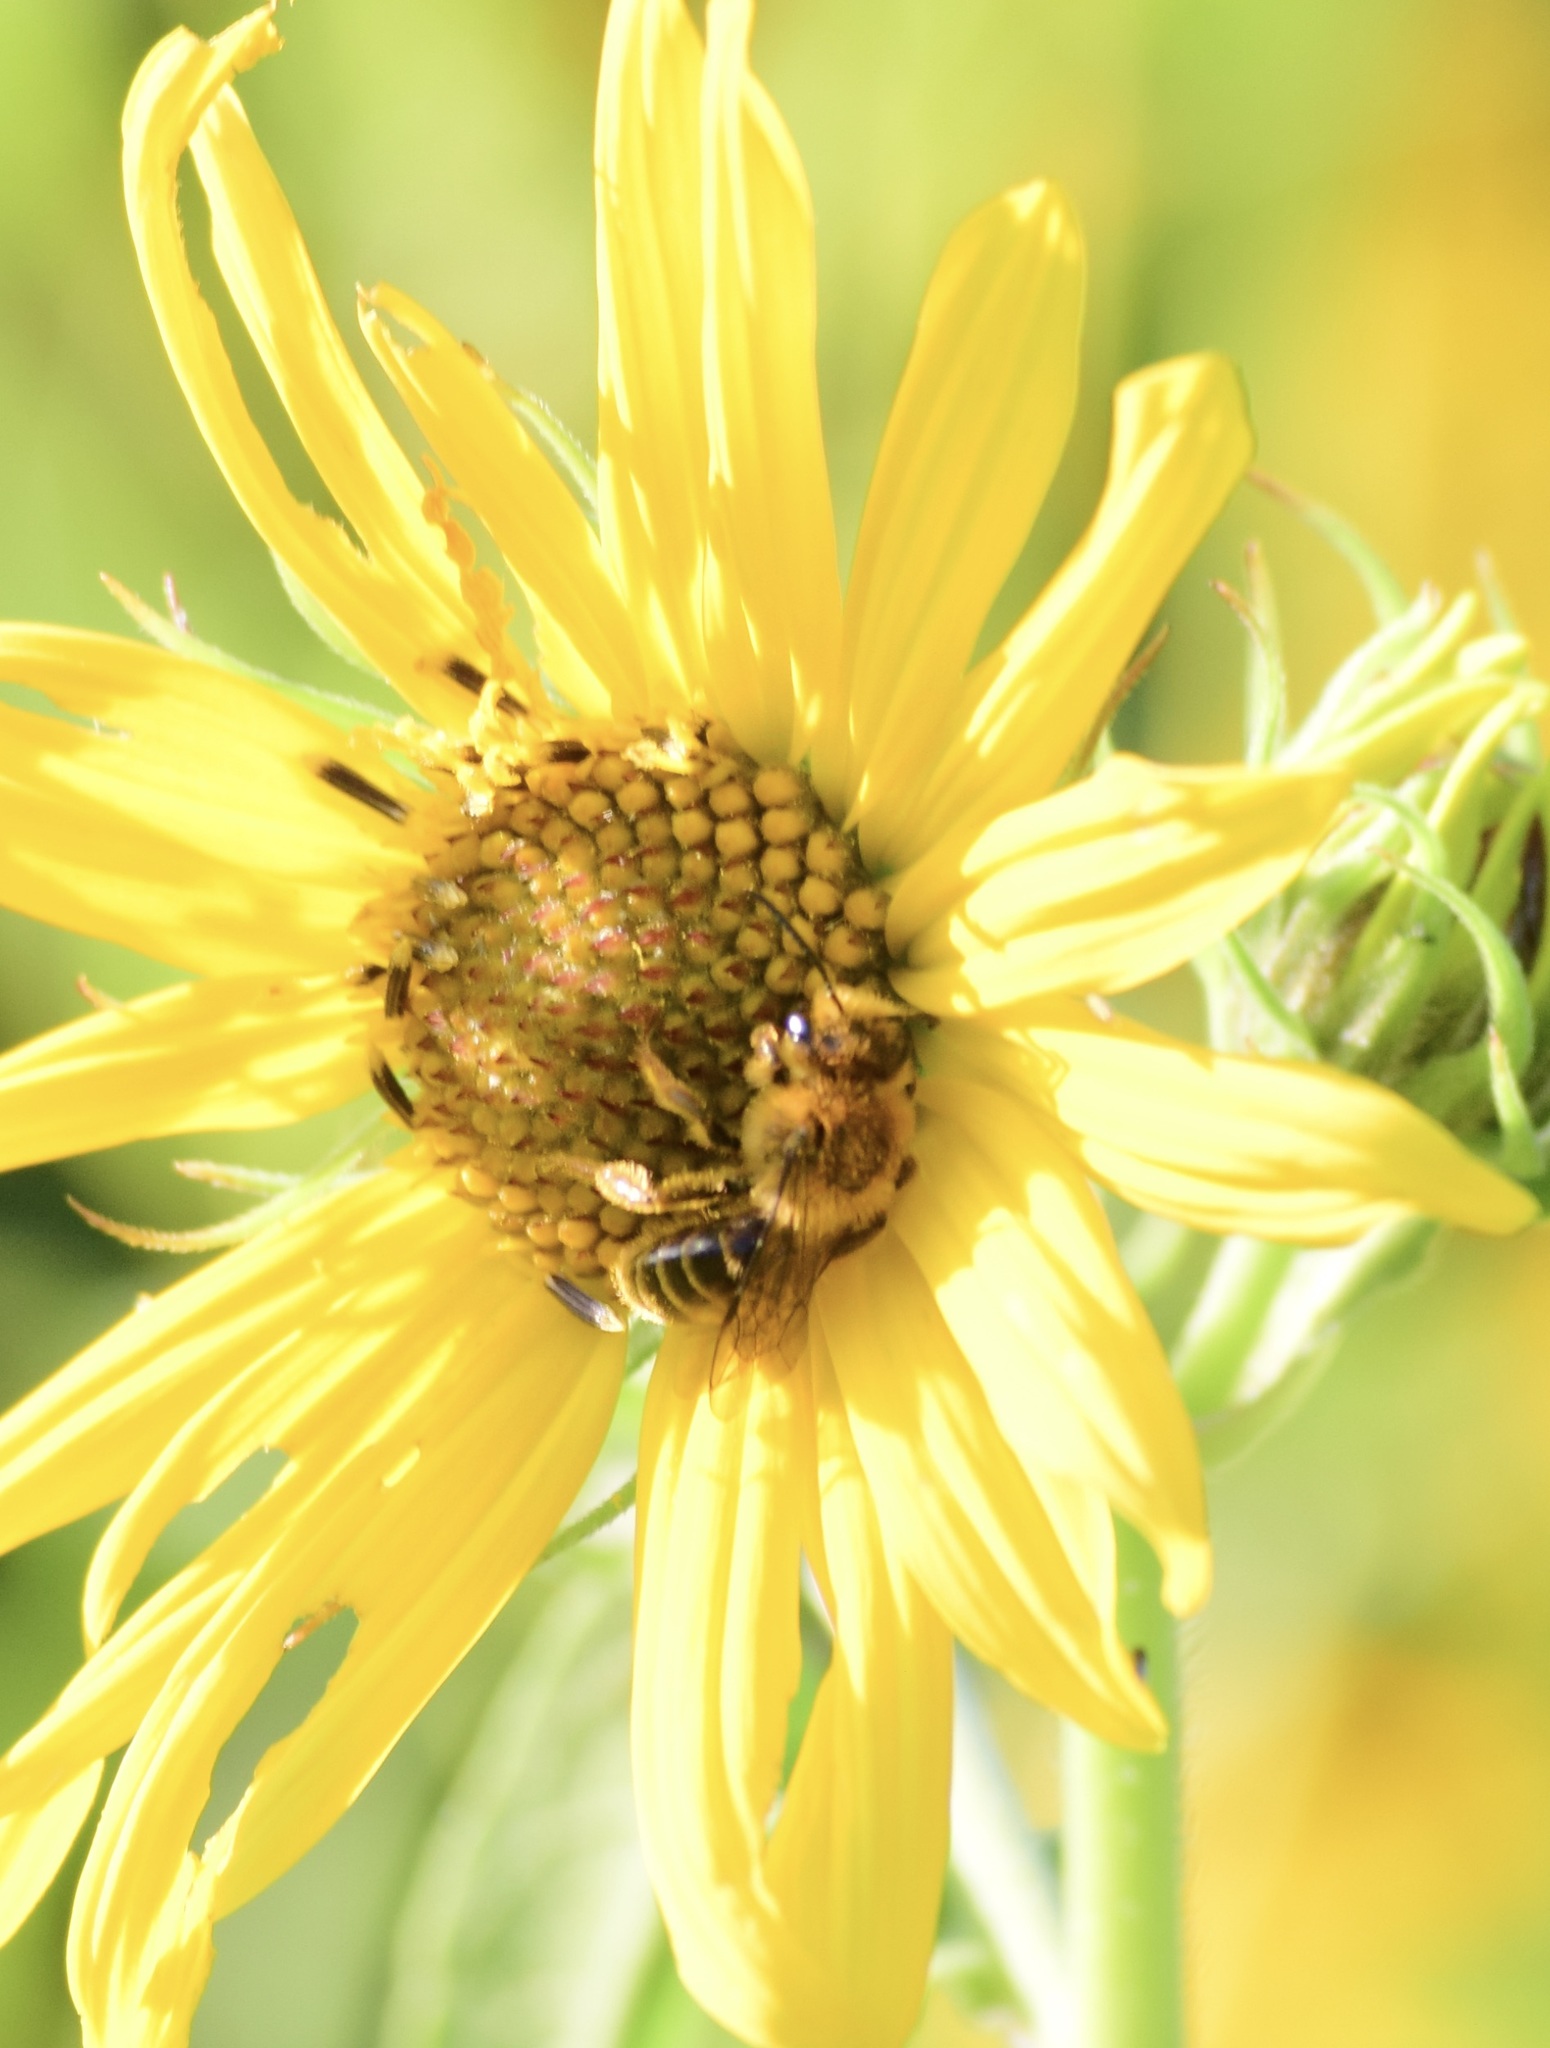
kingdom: Animalia
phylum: Arthropoda
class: Insecta
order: Hymenoptera
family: Andrenidae
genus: Andrena
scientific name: Andrena helianthi
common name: Sunflower mining bee
